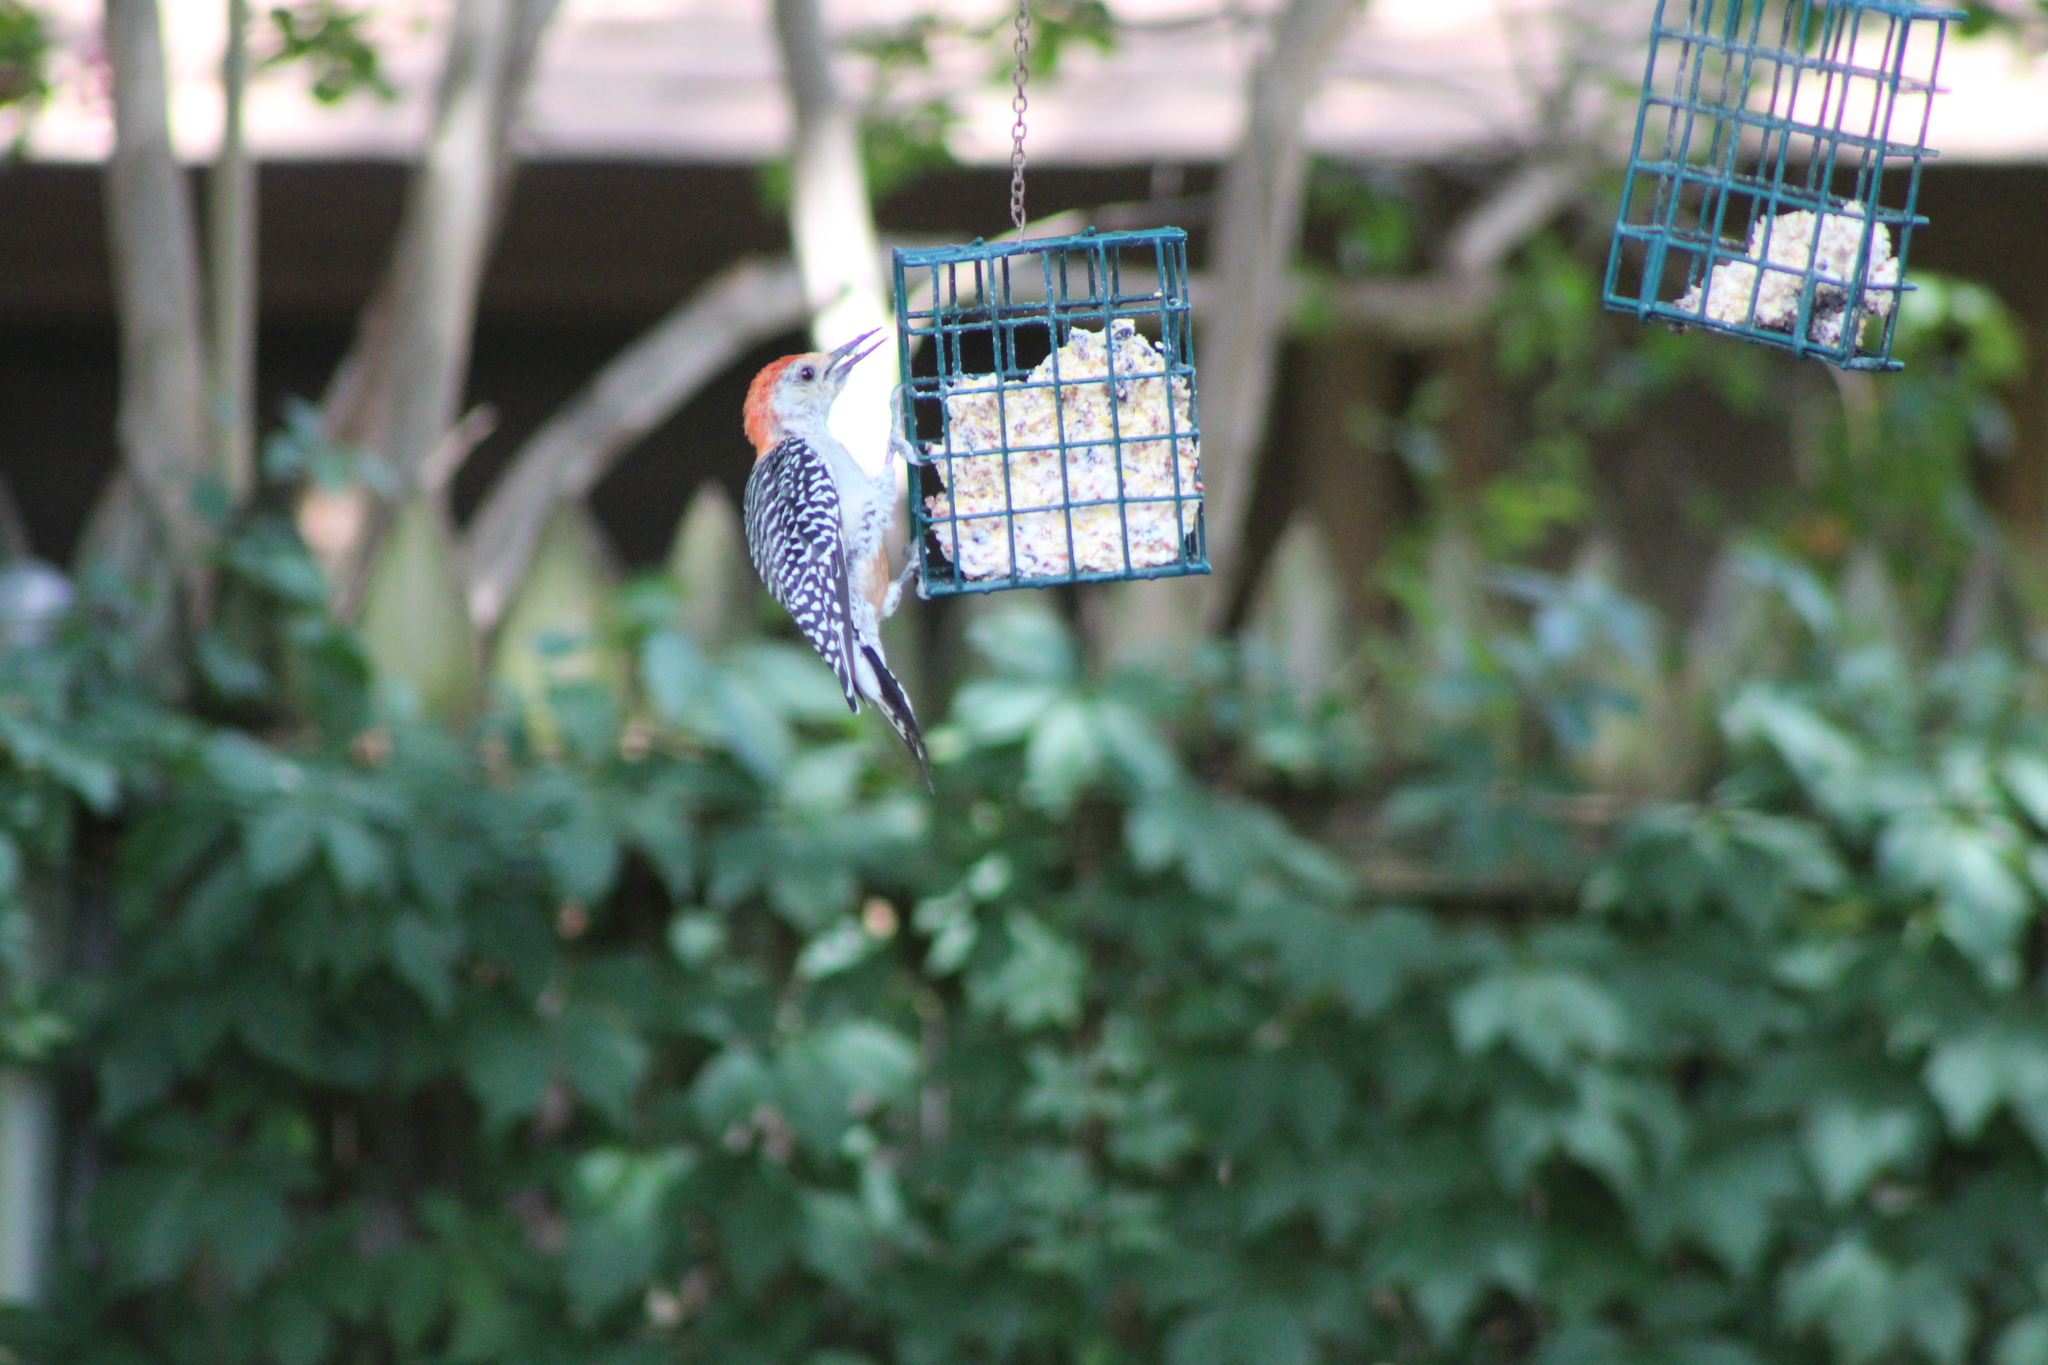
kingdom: Animalia
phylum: Chordata
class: Aves
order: Piciformes
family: Picidae
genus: Melanerpes
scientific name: Melanerpes carolinus
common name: Red-bellied woodpecker
